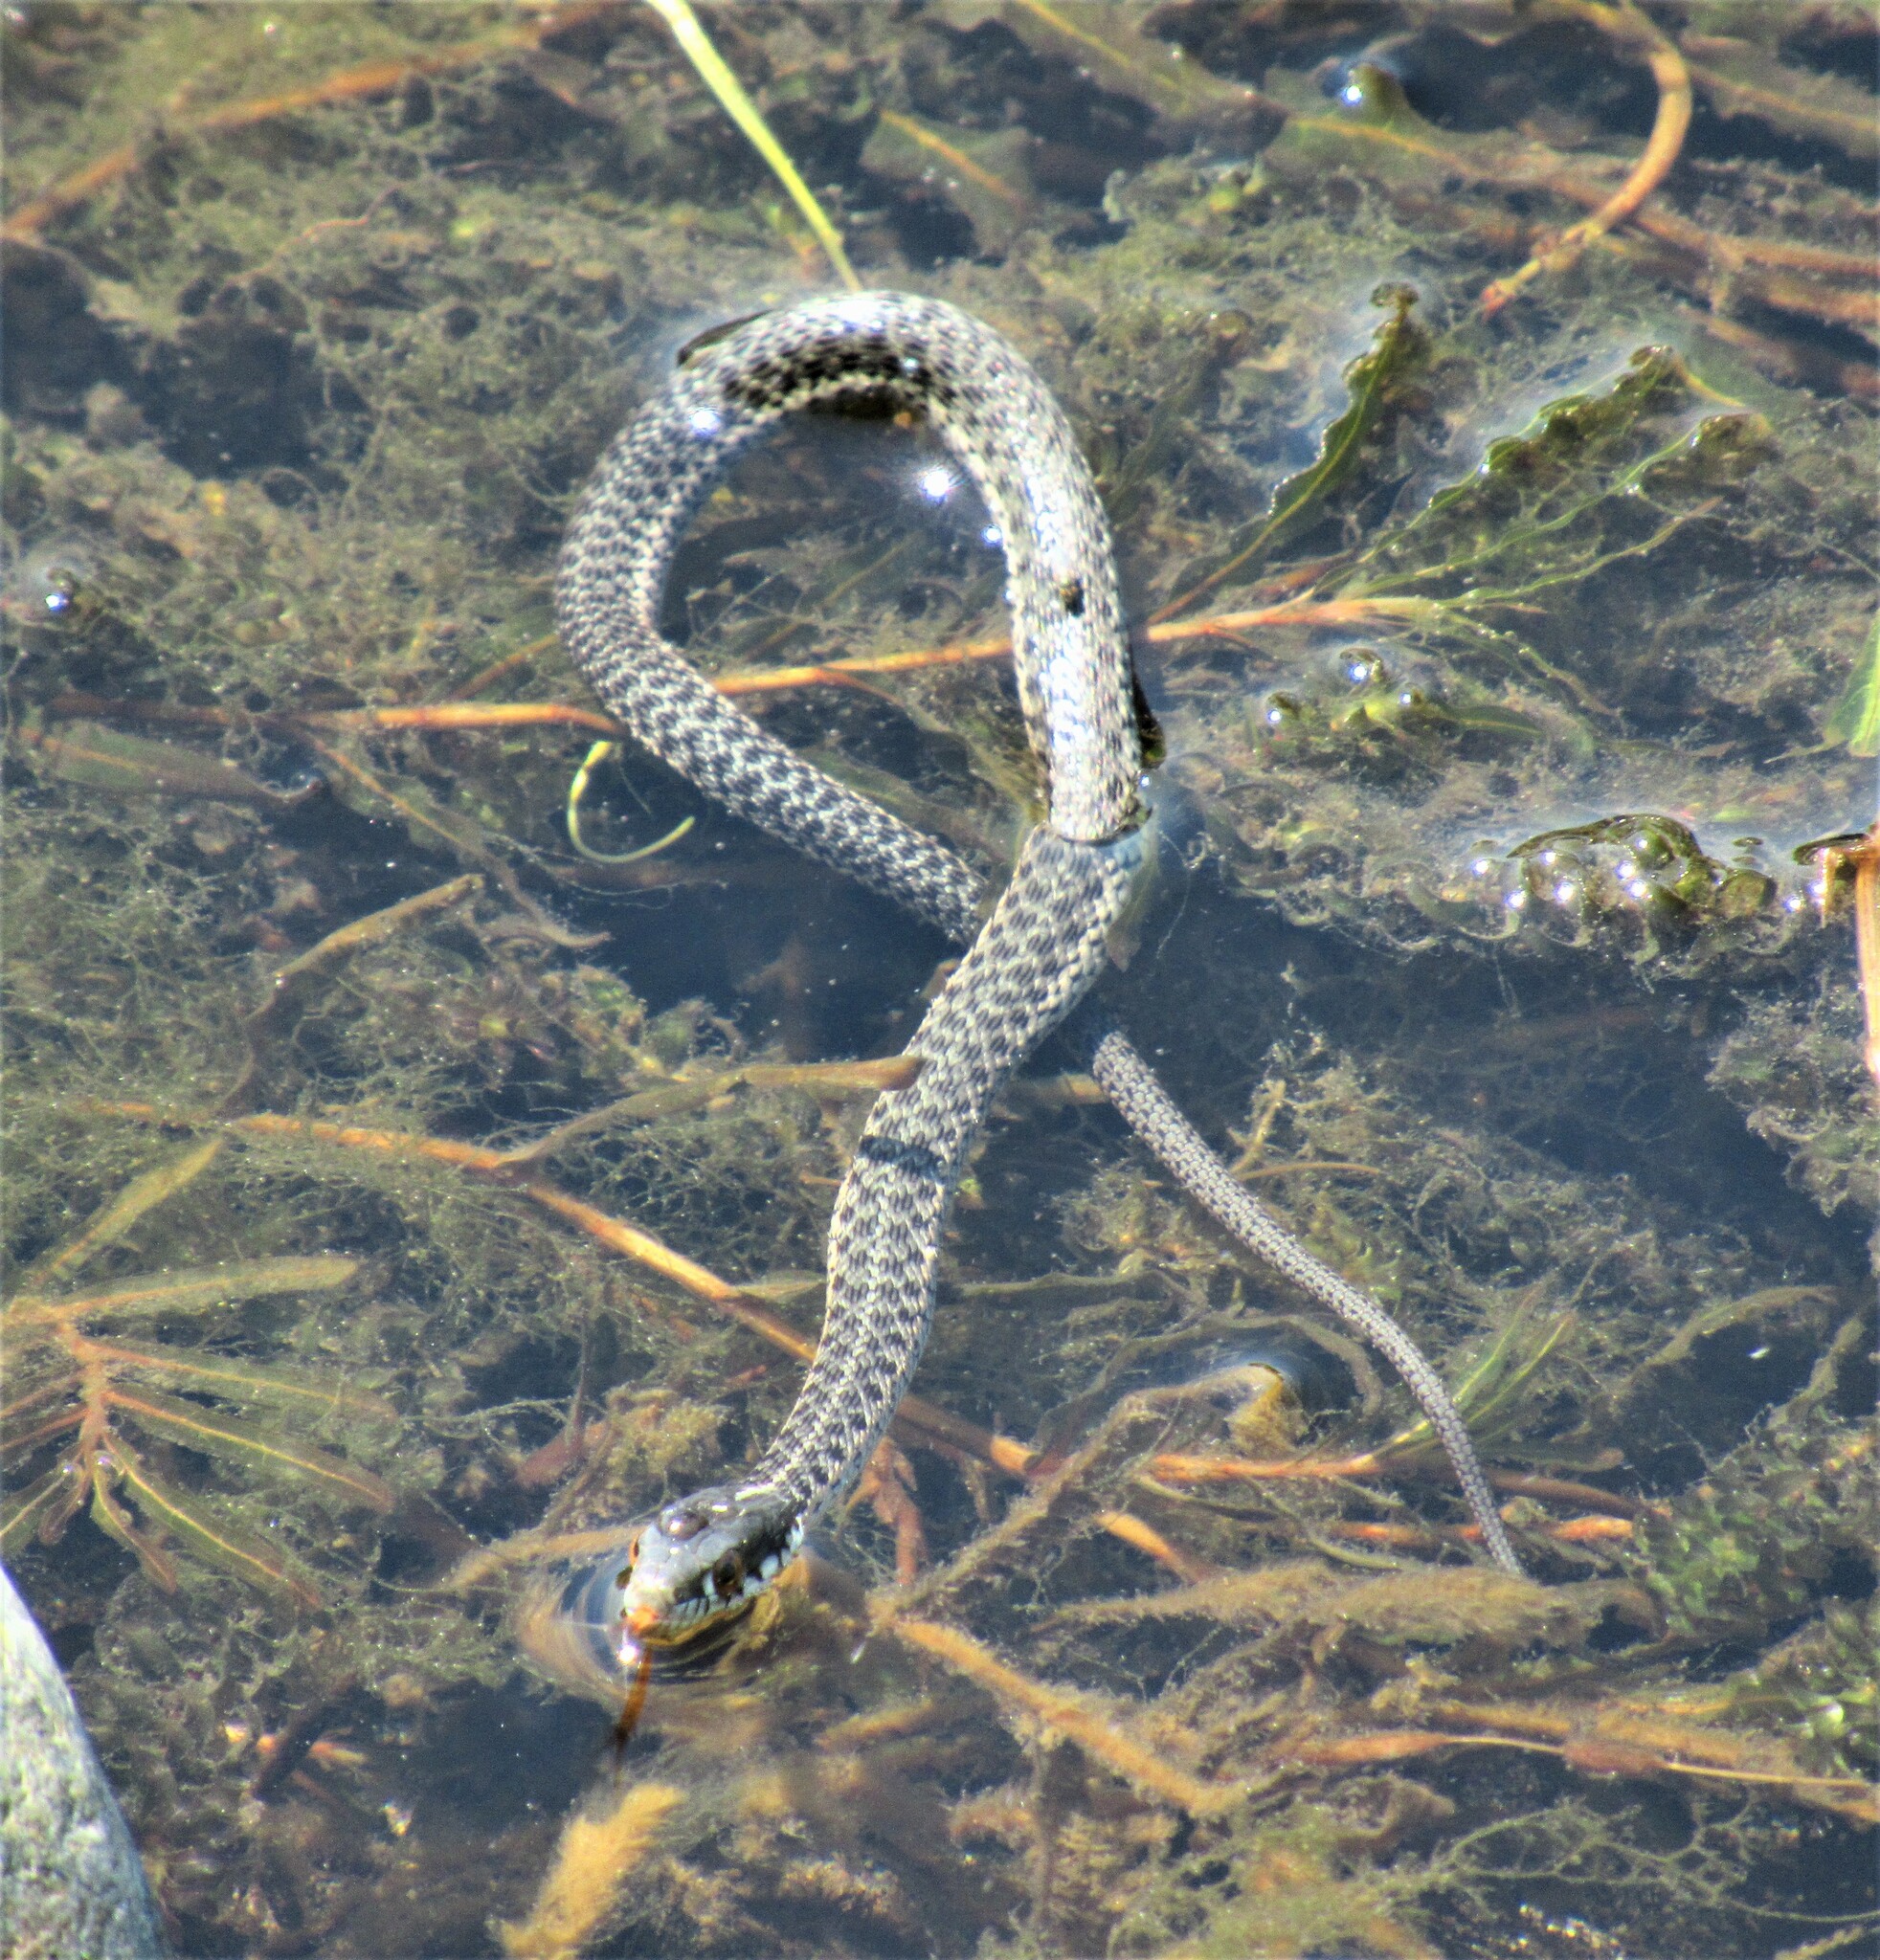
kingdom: Animalia
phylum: Chordata
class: Squamata
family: Colubridae
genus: Thamnophis
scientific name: Thamnophis atratus
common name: Pacific coast aquatic garter snake
